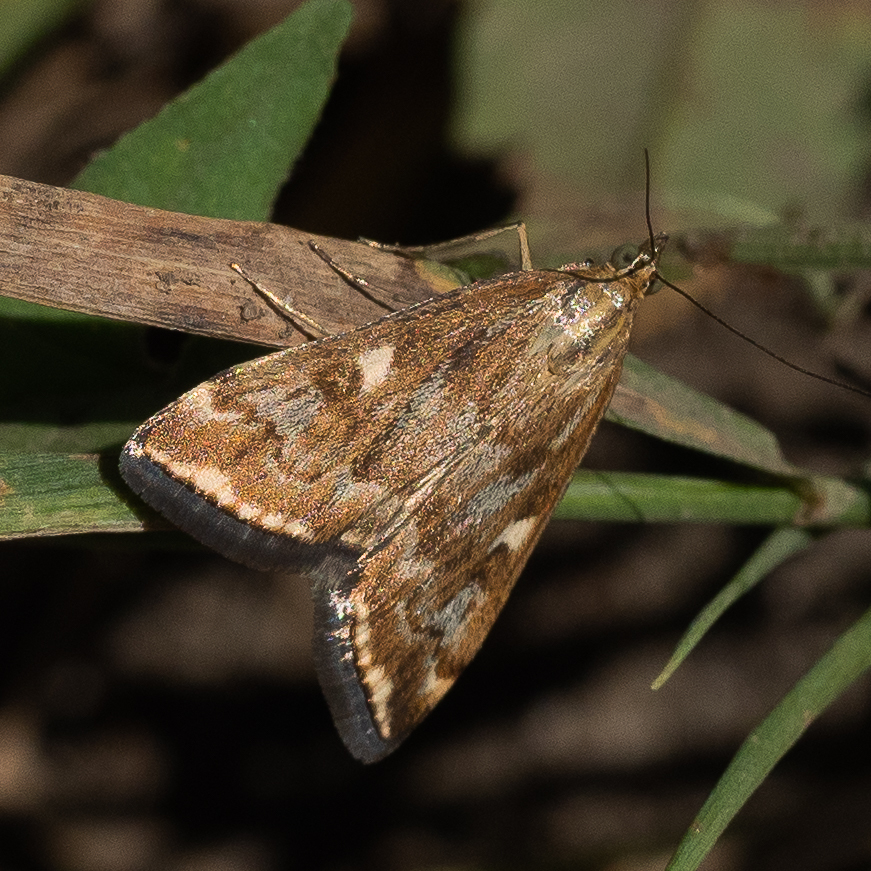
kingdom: Animalia
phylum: Arthropoda
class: Insecta
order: Lepidoptera
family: Crambidae
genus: Loxostege
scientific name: Loxostege sticticalis
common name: Crambid moth
